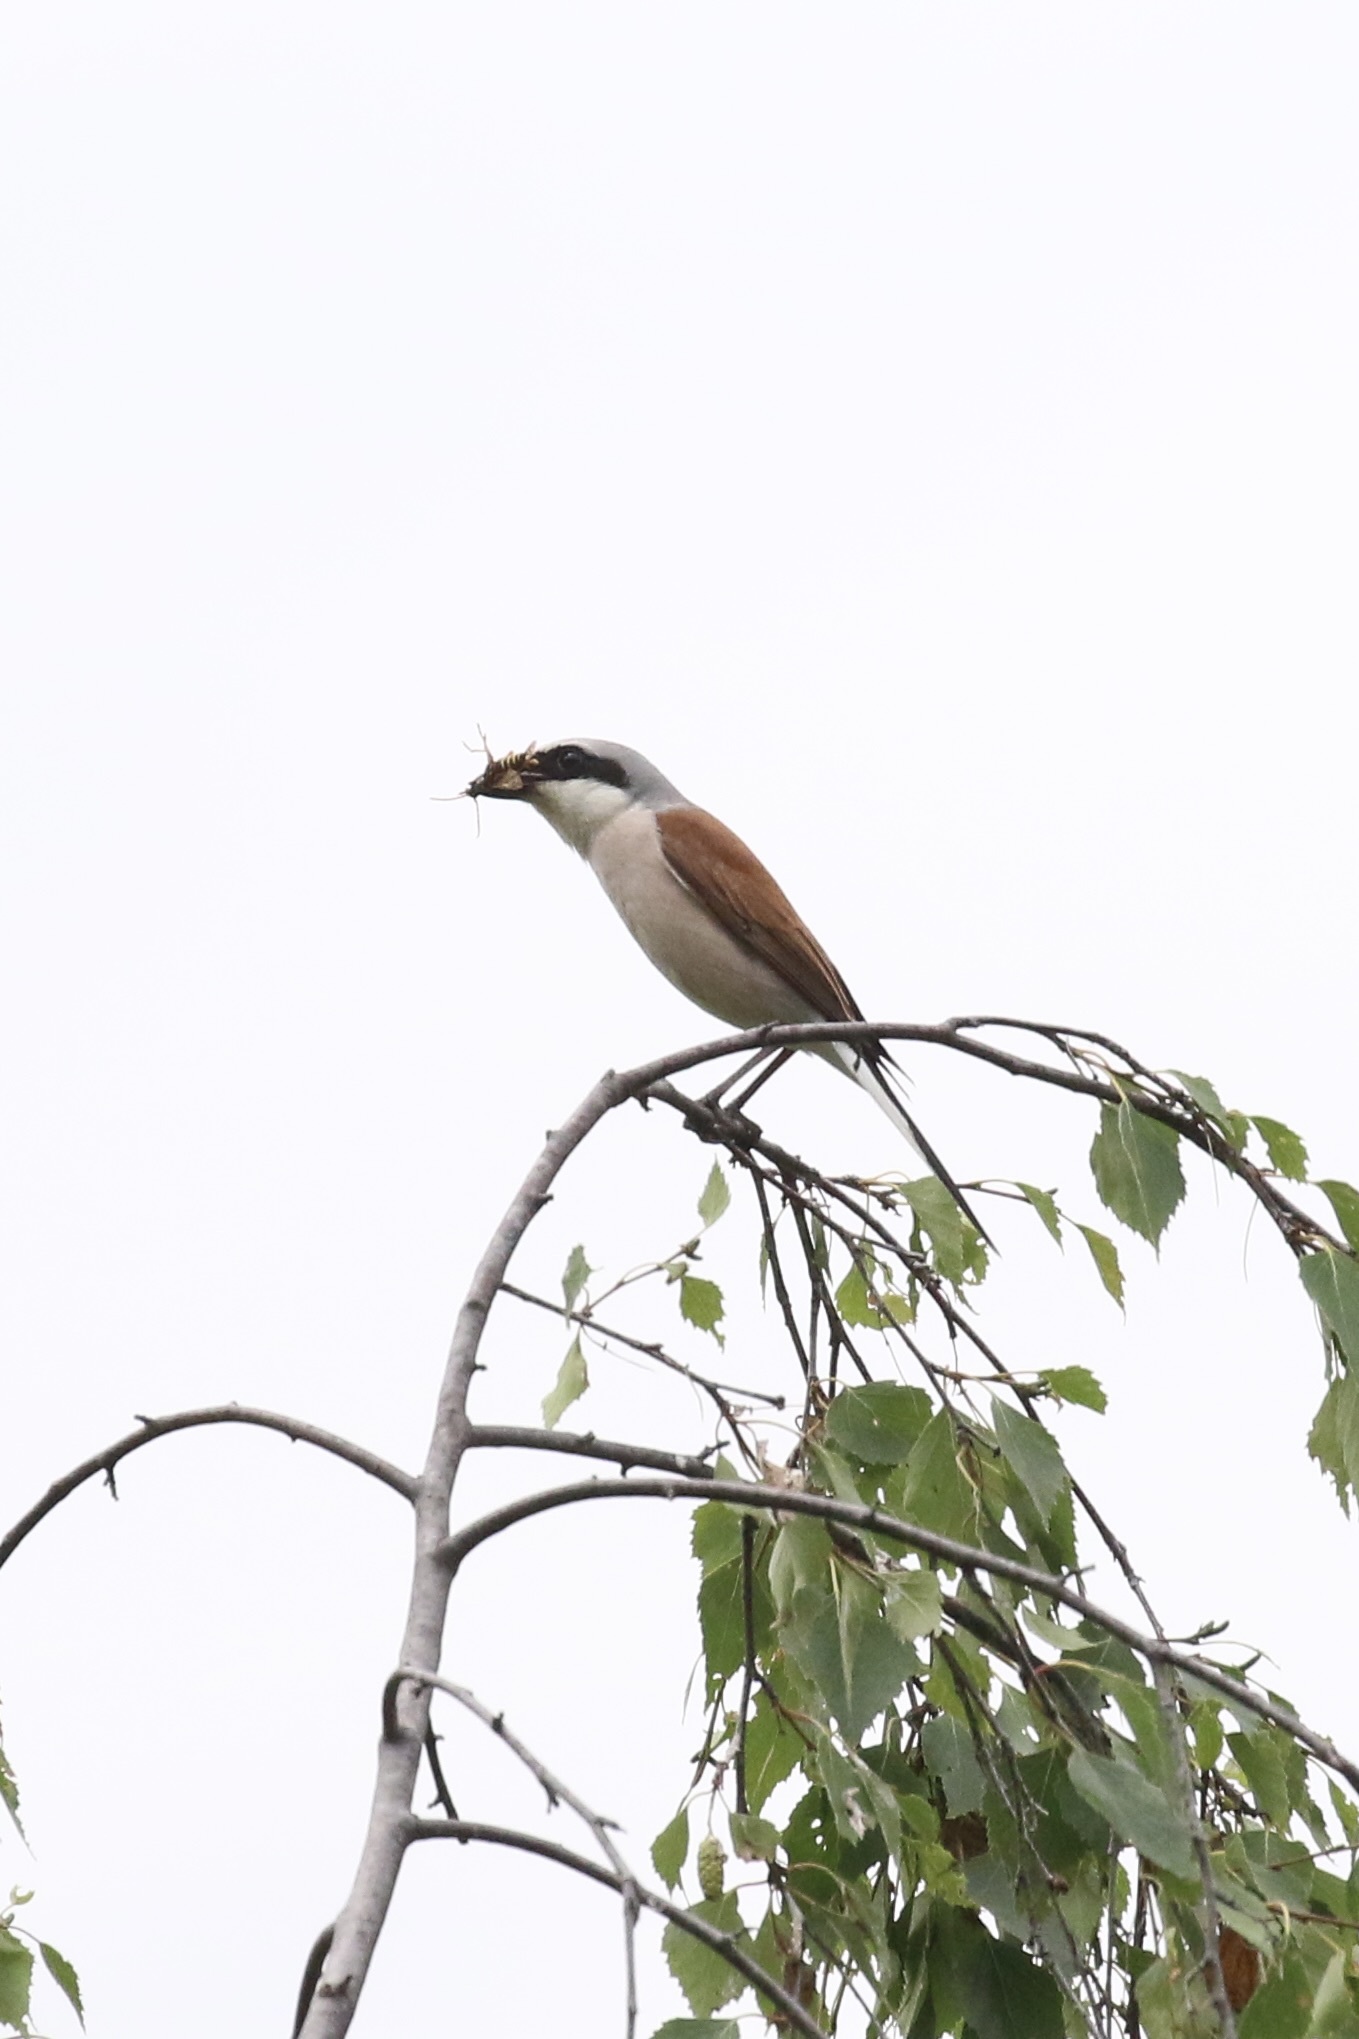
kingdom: Animalia
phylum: Chordata
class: Aves
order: Passeriformes
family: Laniidae
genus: Lanius
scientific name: Lanius collurio
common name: Red-backed shrike
